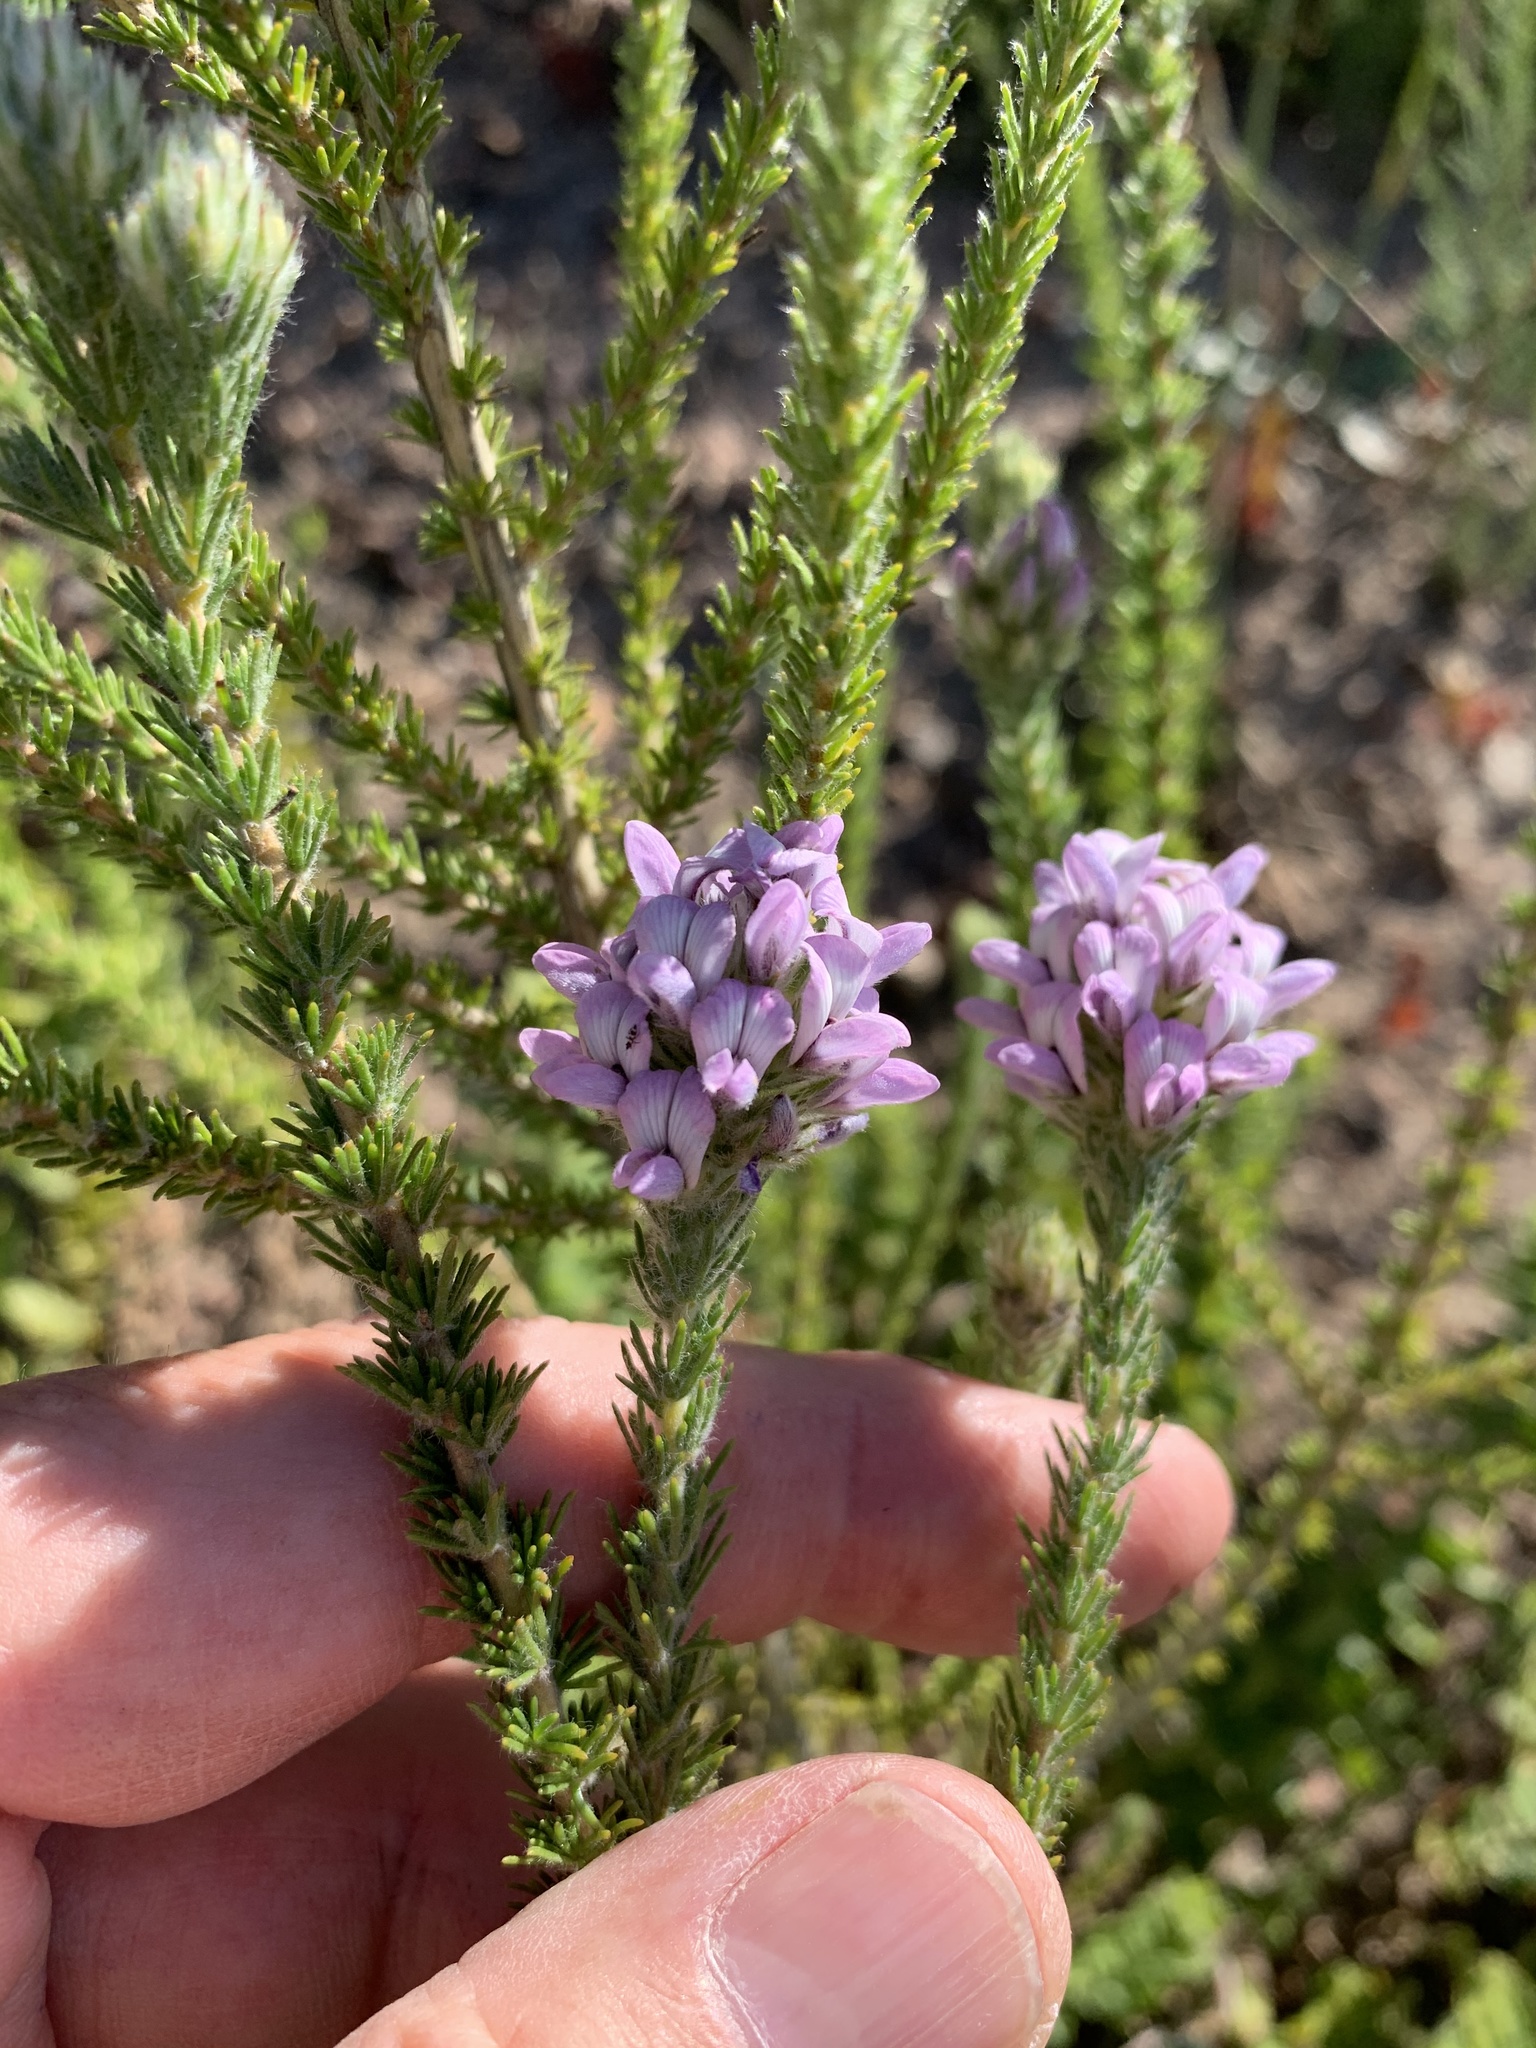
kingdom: Plantae
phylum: Tracheophyta
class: Magnoliopsida
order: Fabales
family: Fabaceae
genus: Aspalathus
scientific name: Aspalathus cephalotes
